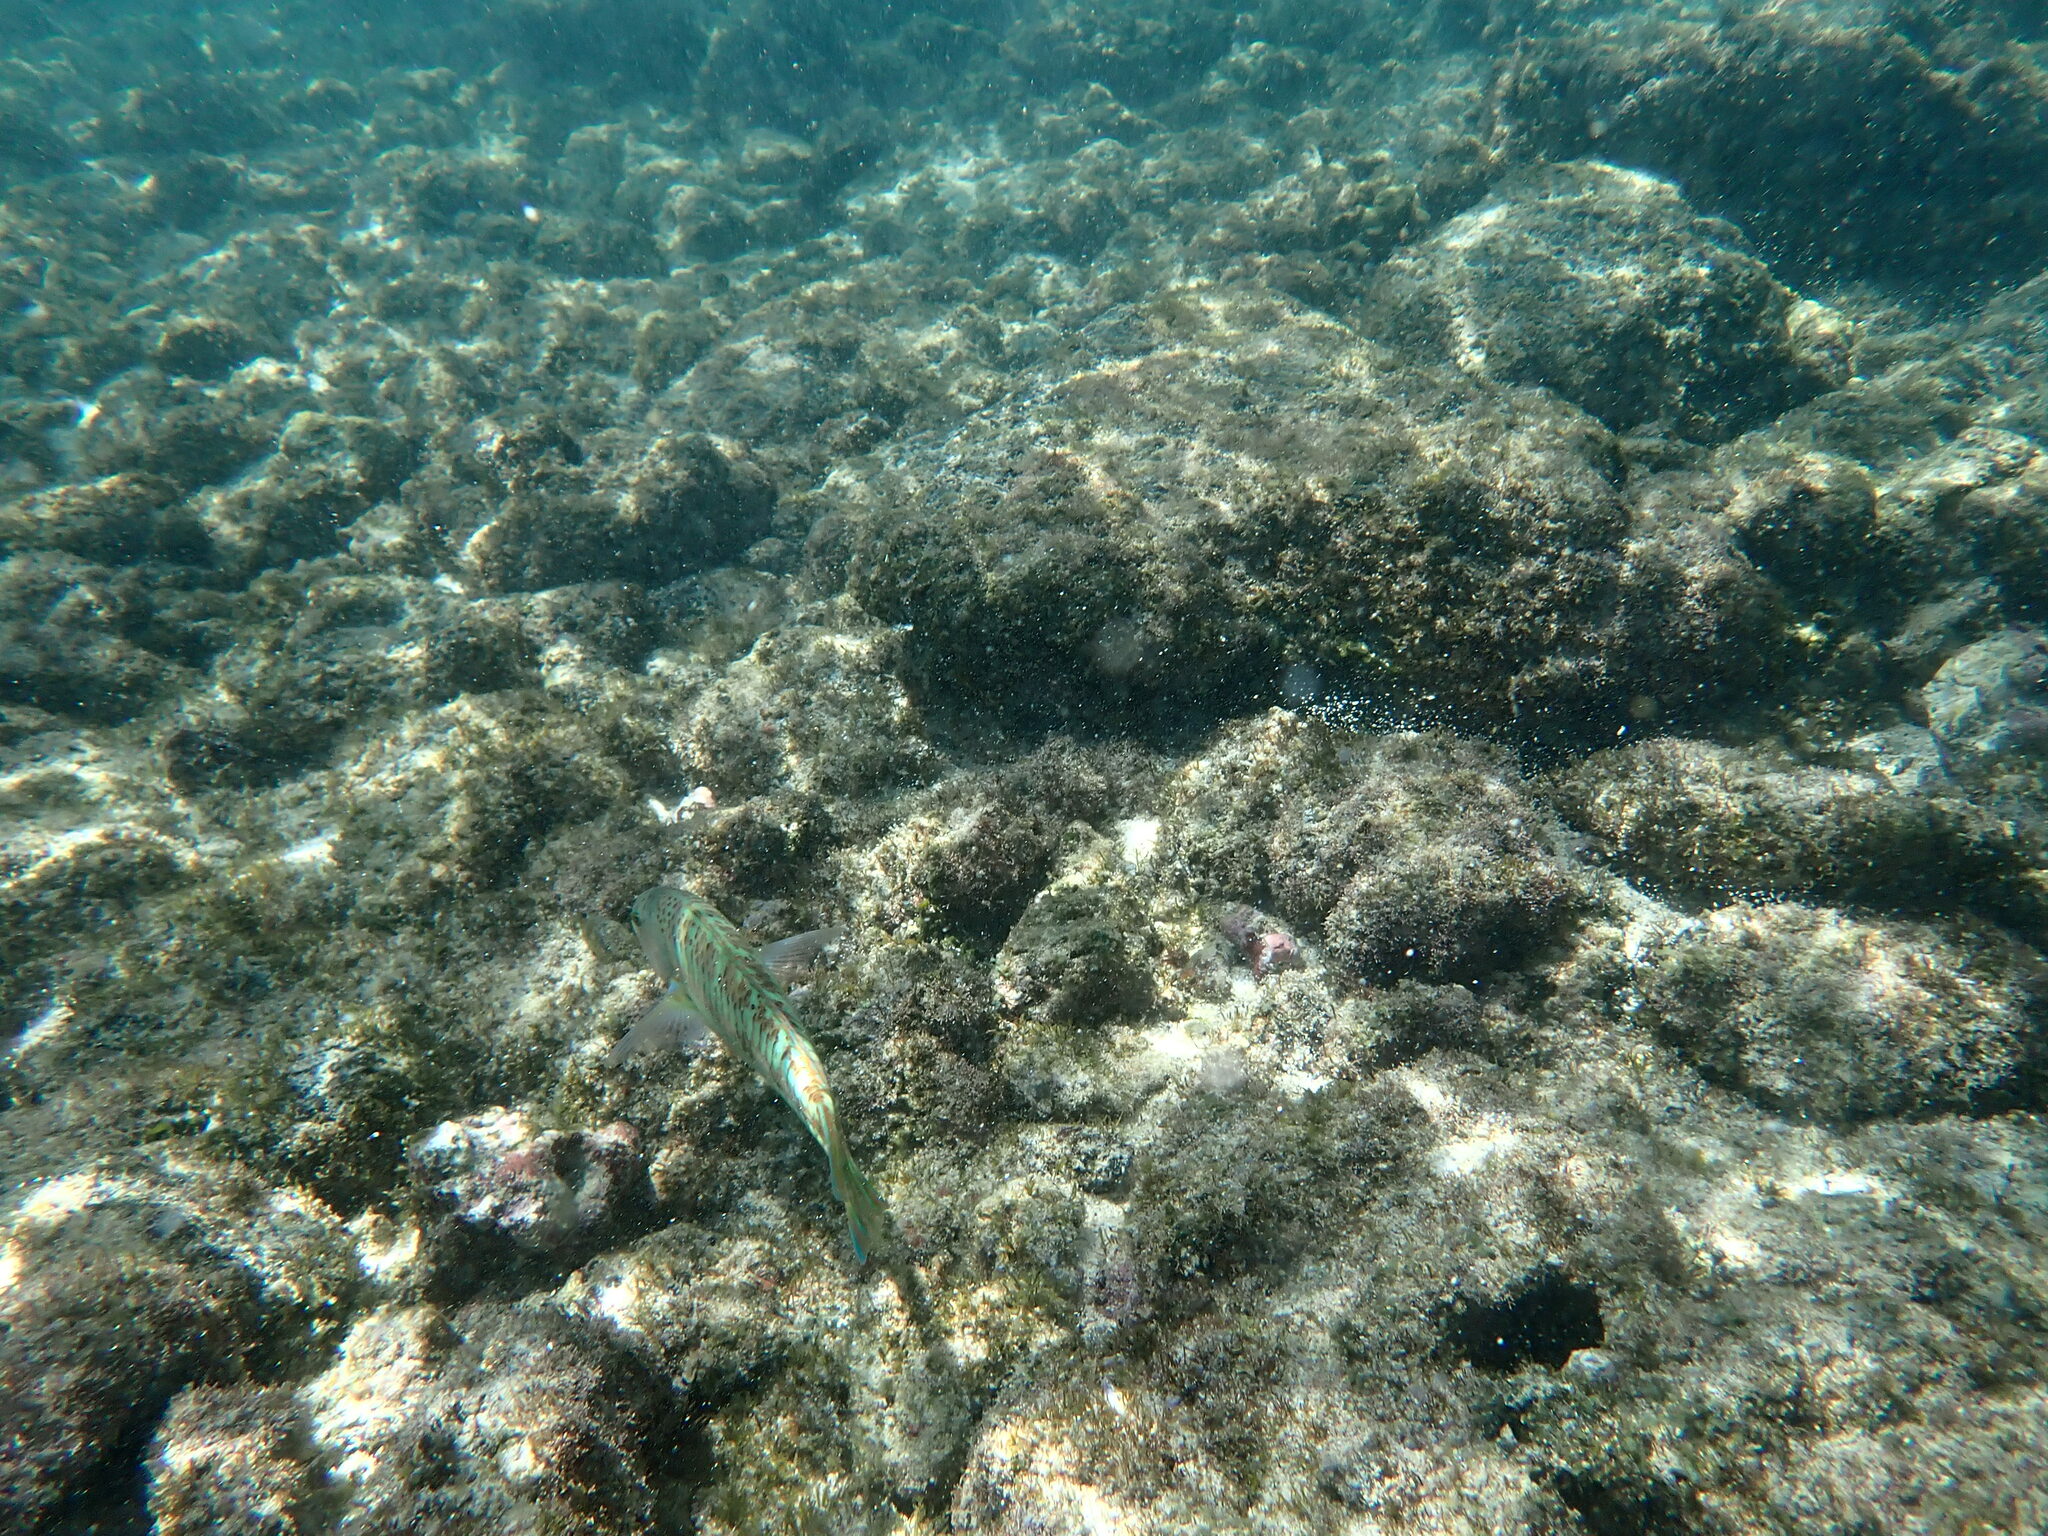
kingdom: Animalia
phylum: Chordata
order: Perciformes
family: Labridae
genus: Thalassoma
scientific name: Thalassoma trilobatum
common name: Christmas wrasse
